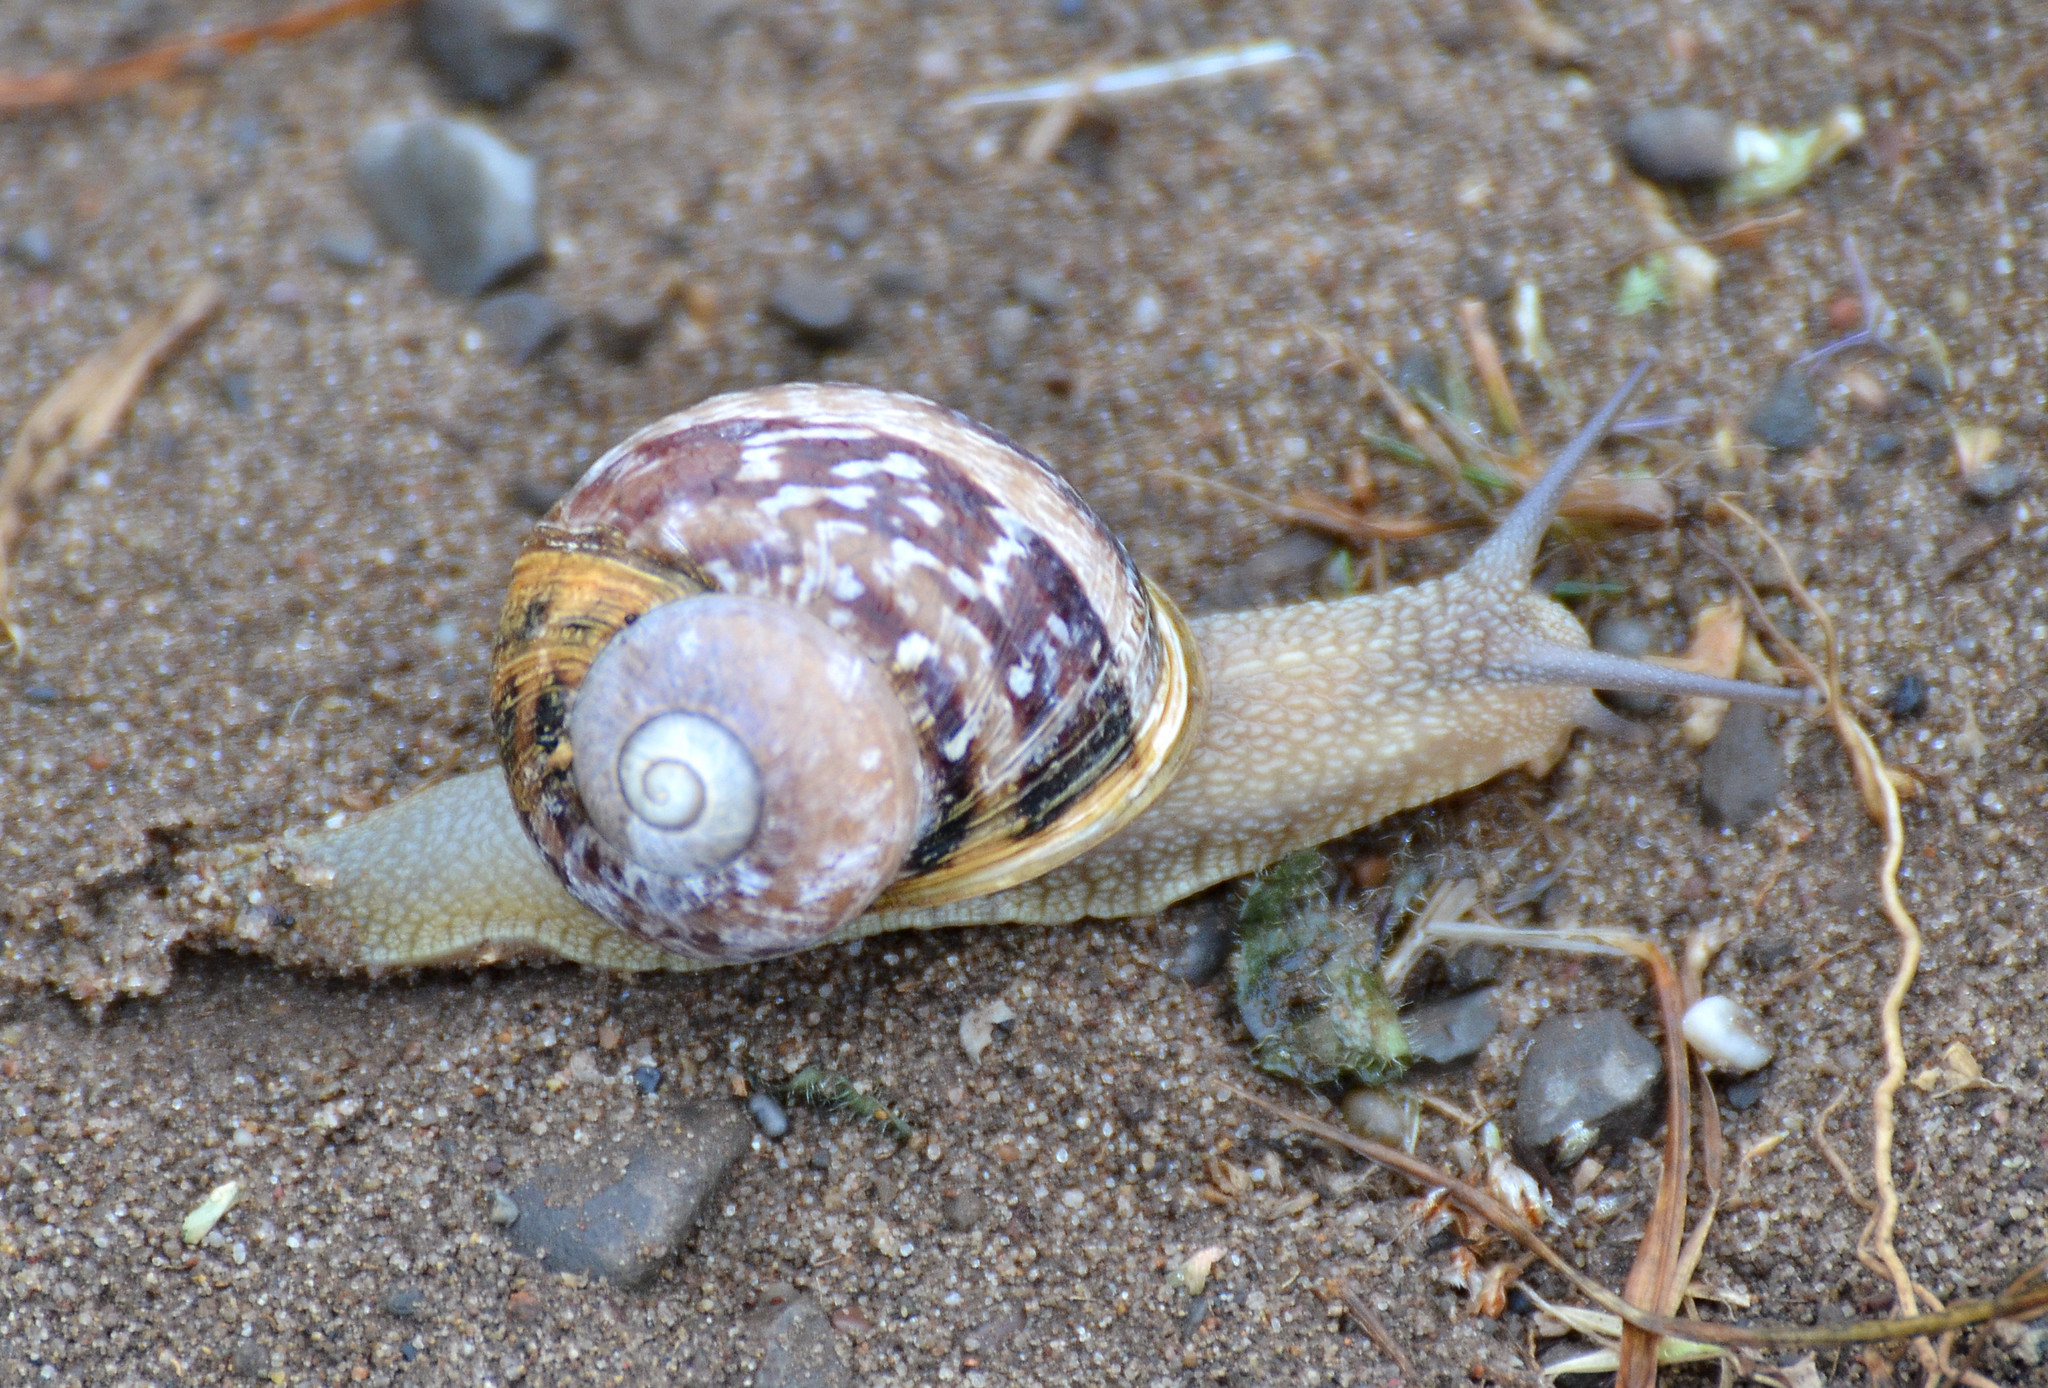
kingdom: Animalia
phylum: Mollusca
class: Gastropoda
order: Stylommatophora
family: Helicidae
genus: Cornu
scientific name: Cornu aspersum
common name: Brown garden snail
